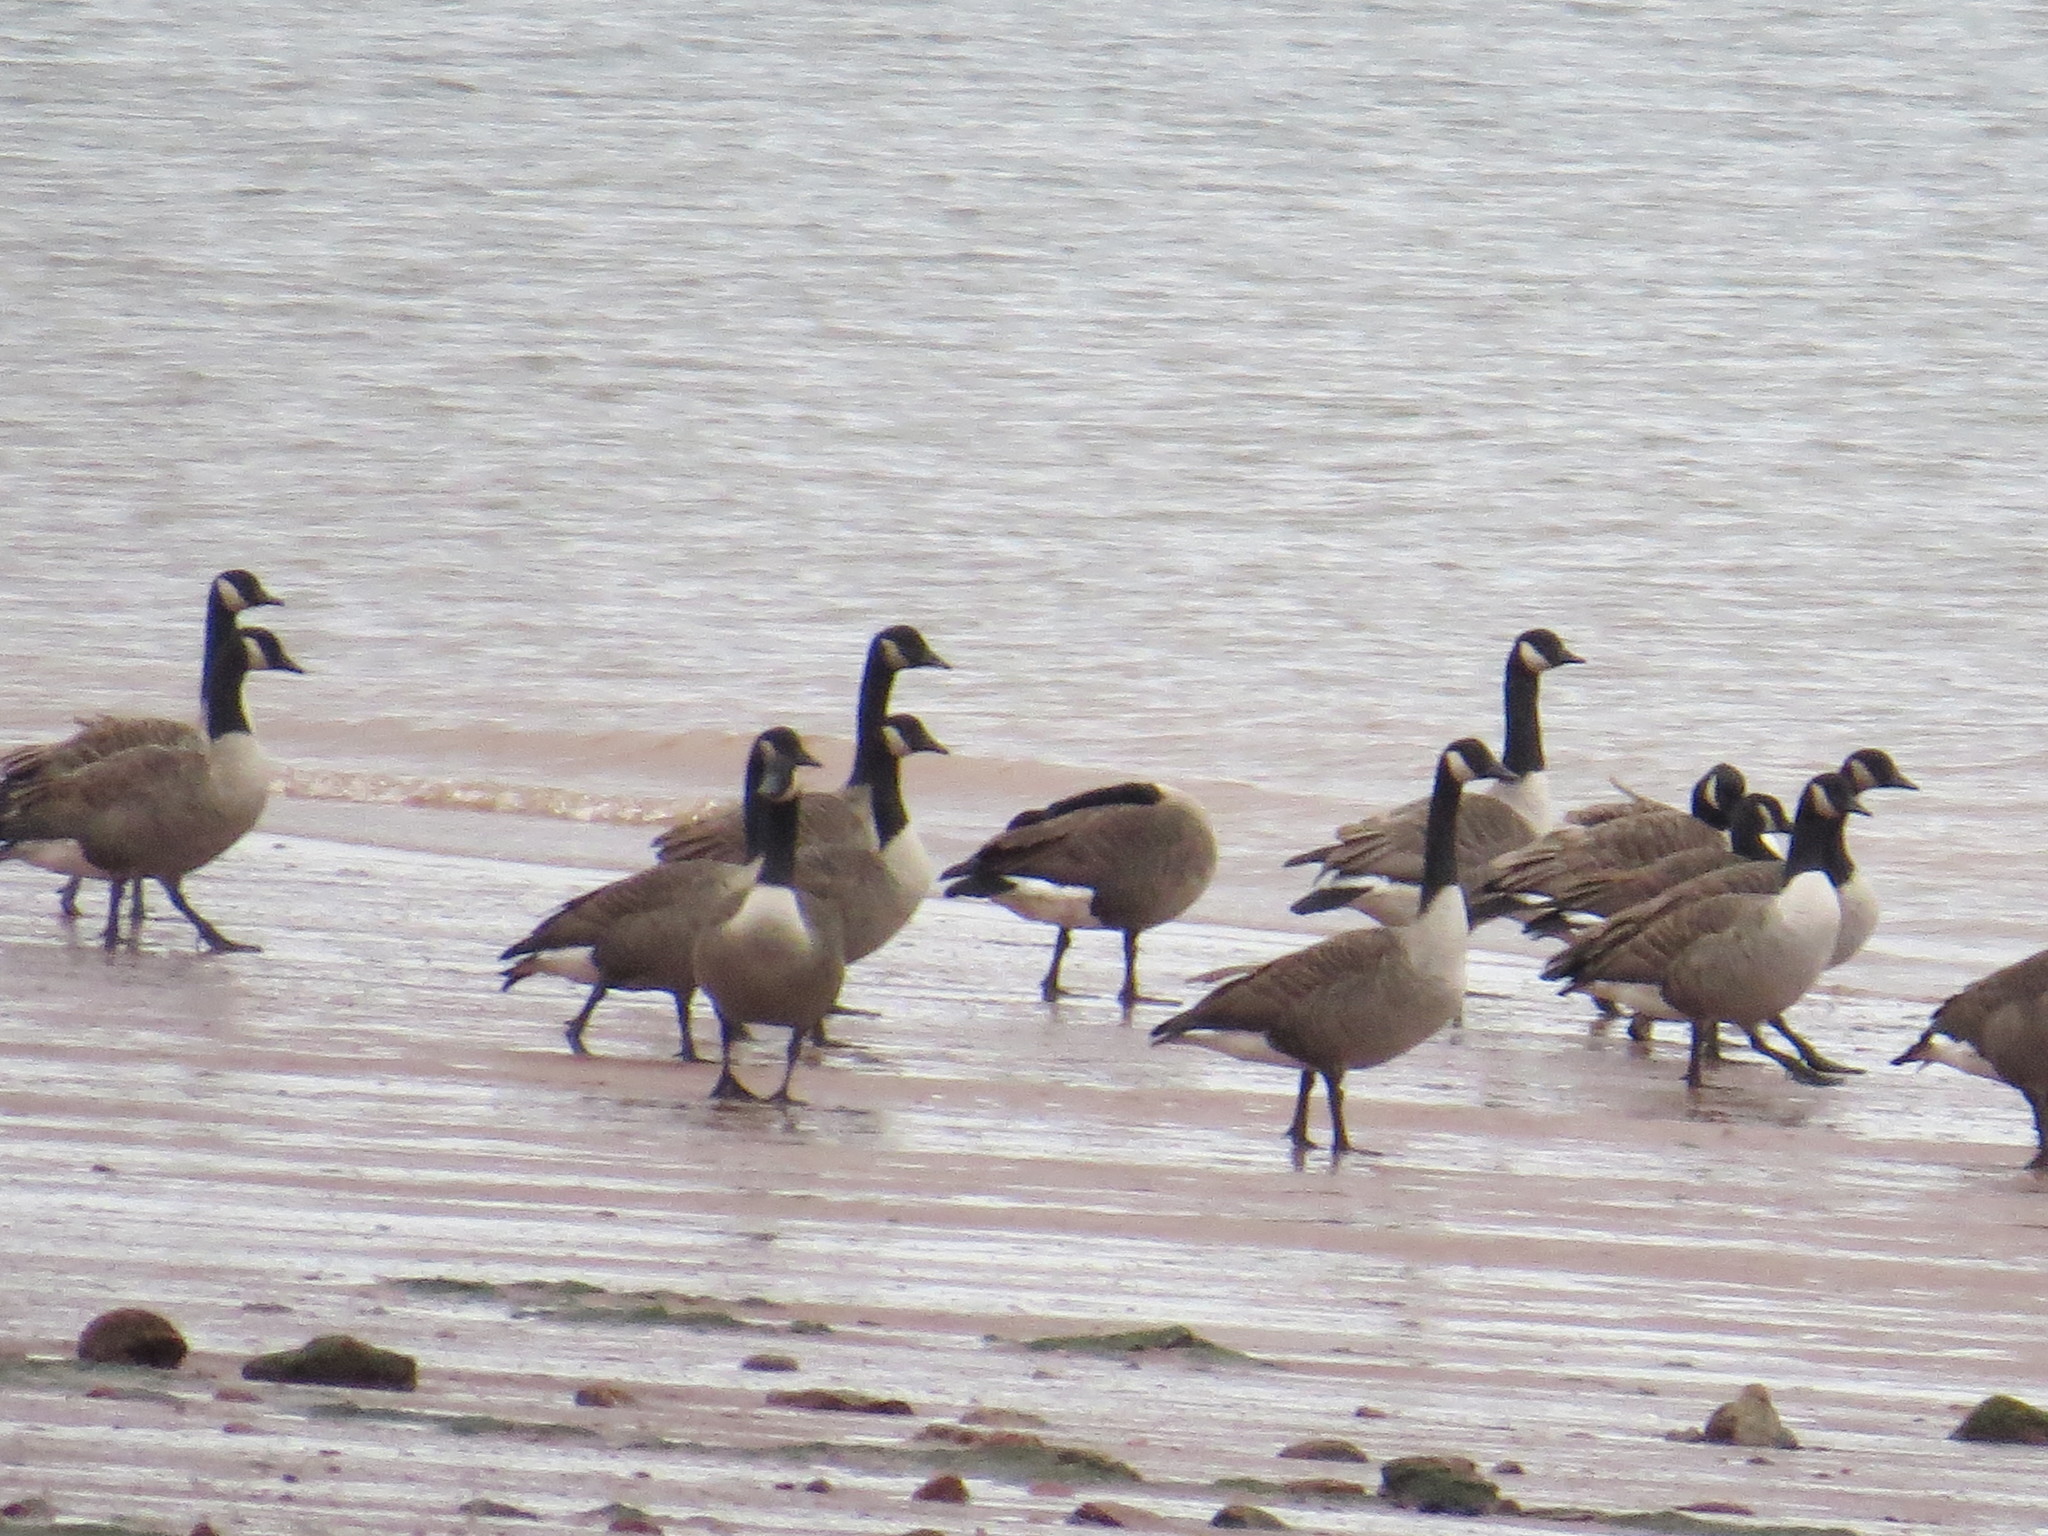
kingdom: Animalia
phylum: Chordata
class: Aves
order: Anseriformes
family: Anatidae
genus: Branta
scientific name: Branta canadensis
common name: Canada goose
